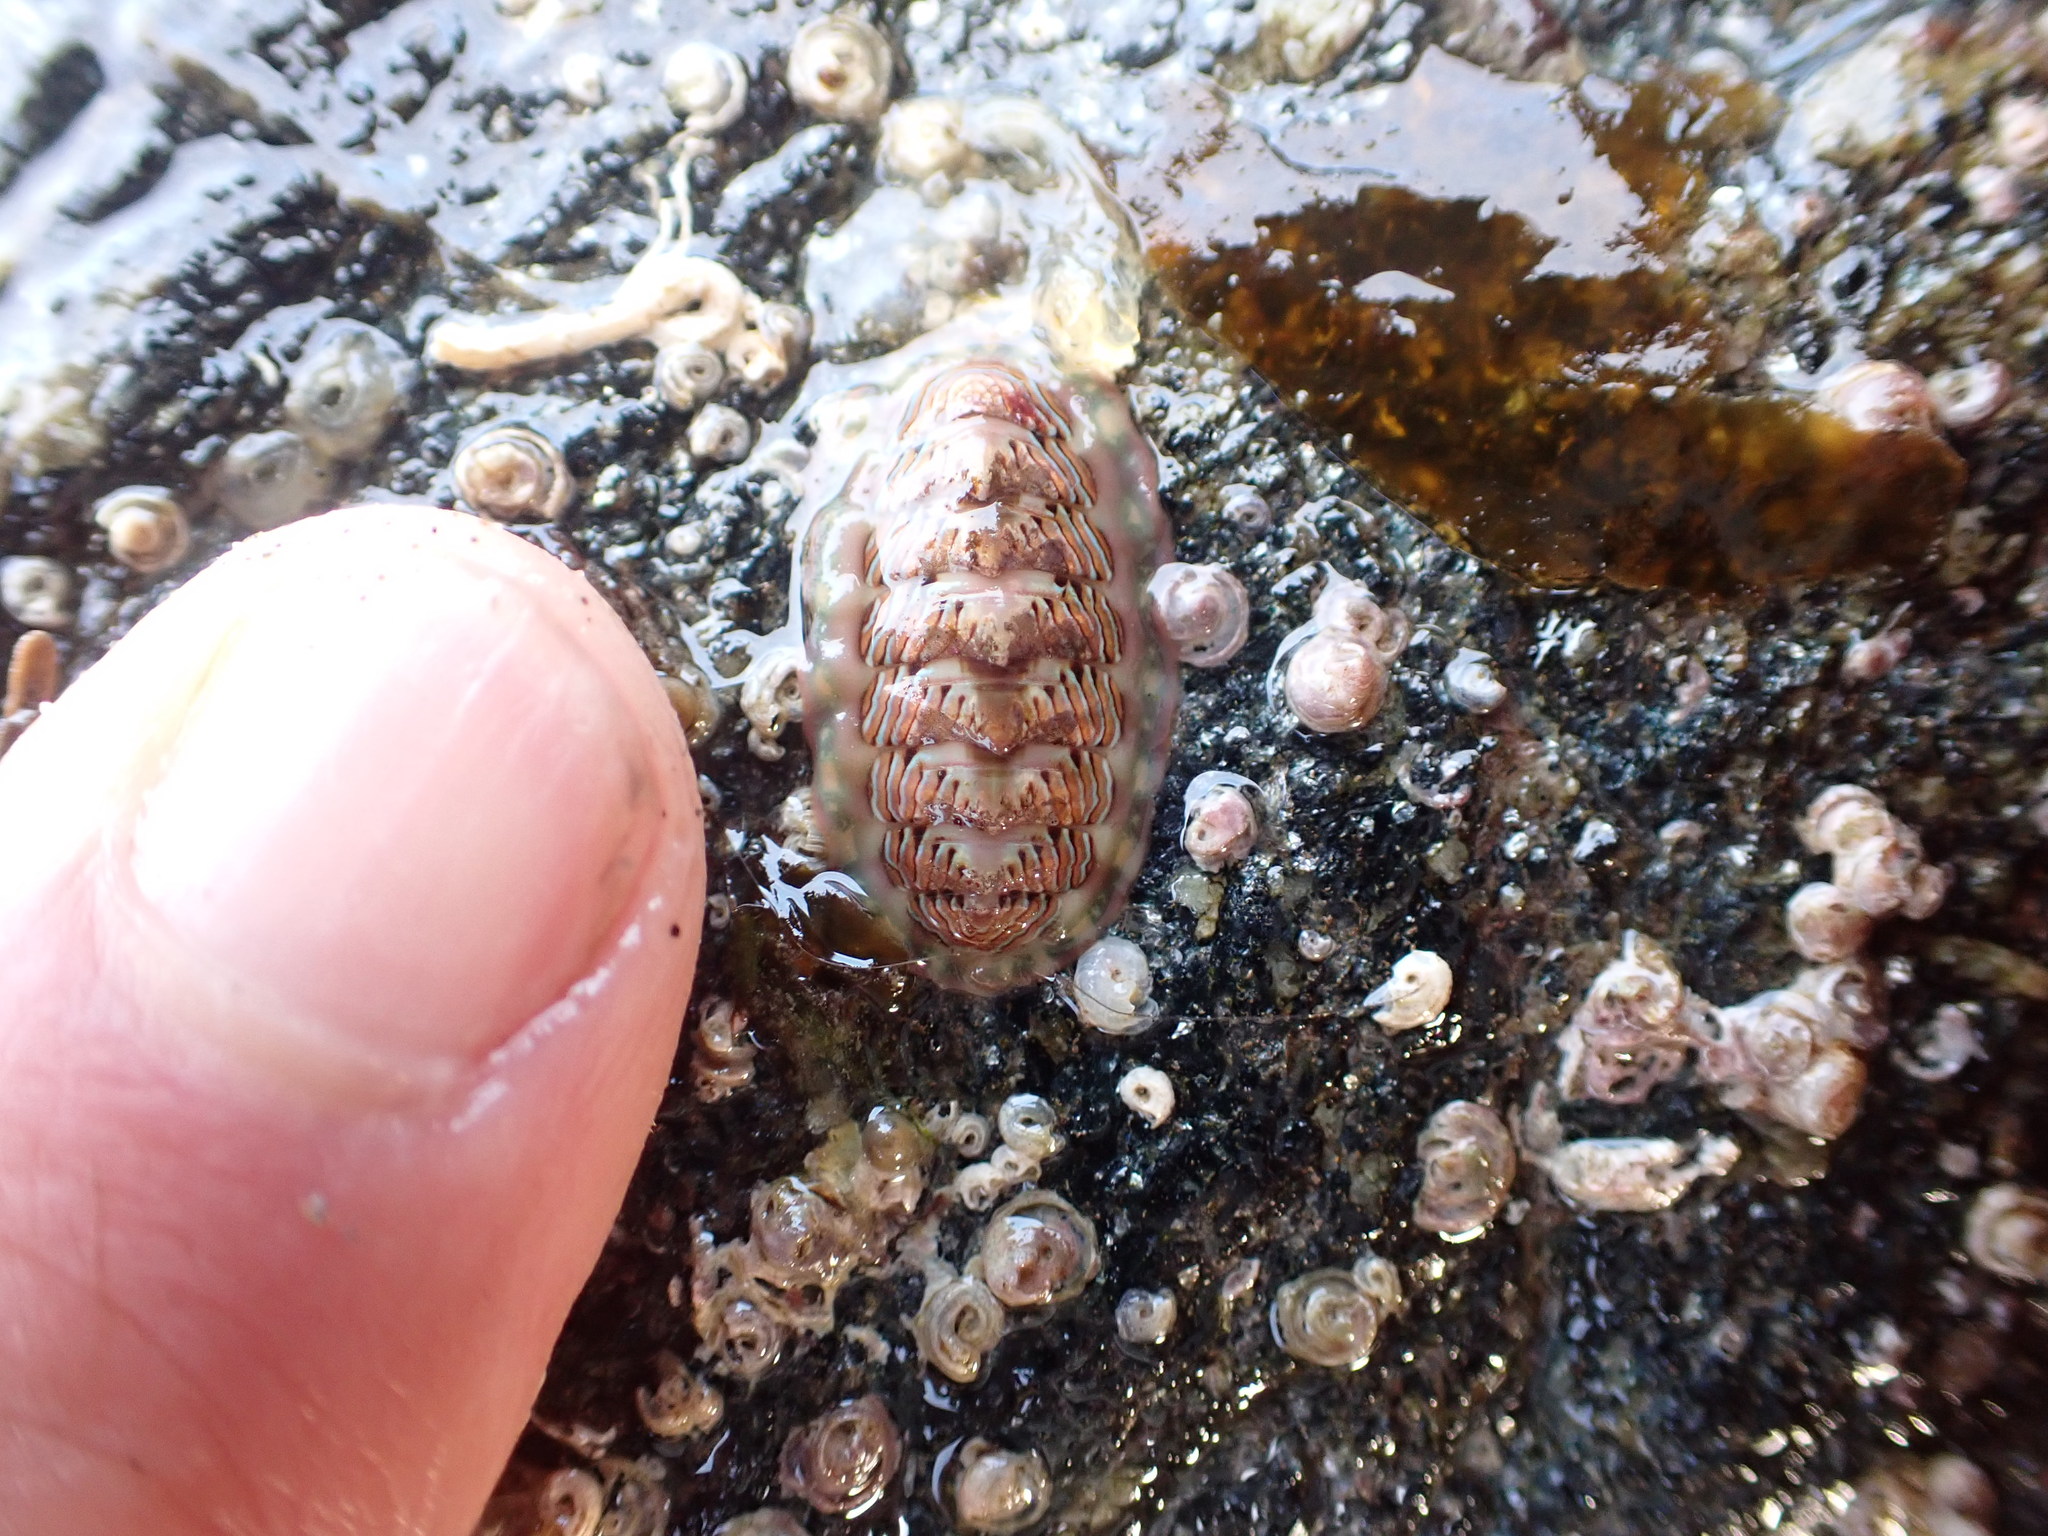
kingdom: Animalia
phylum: Mollusca
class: Polyplacophora
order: Chitonida
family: Tonicellidae
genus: Tonicella
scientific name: Tonicella lineata
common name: Lined chiton
